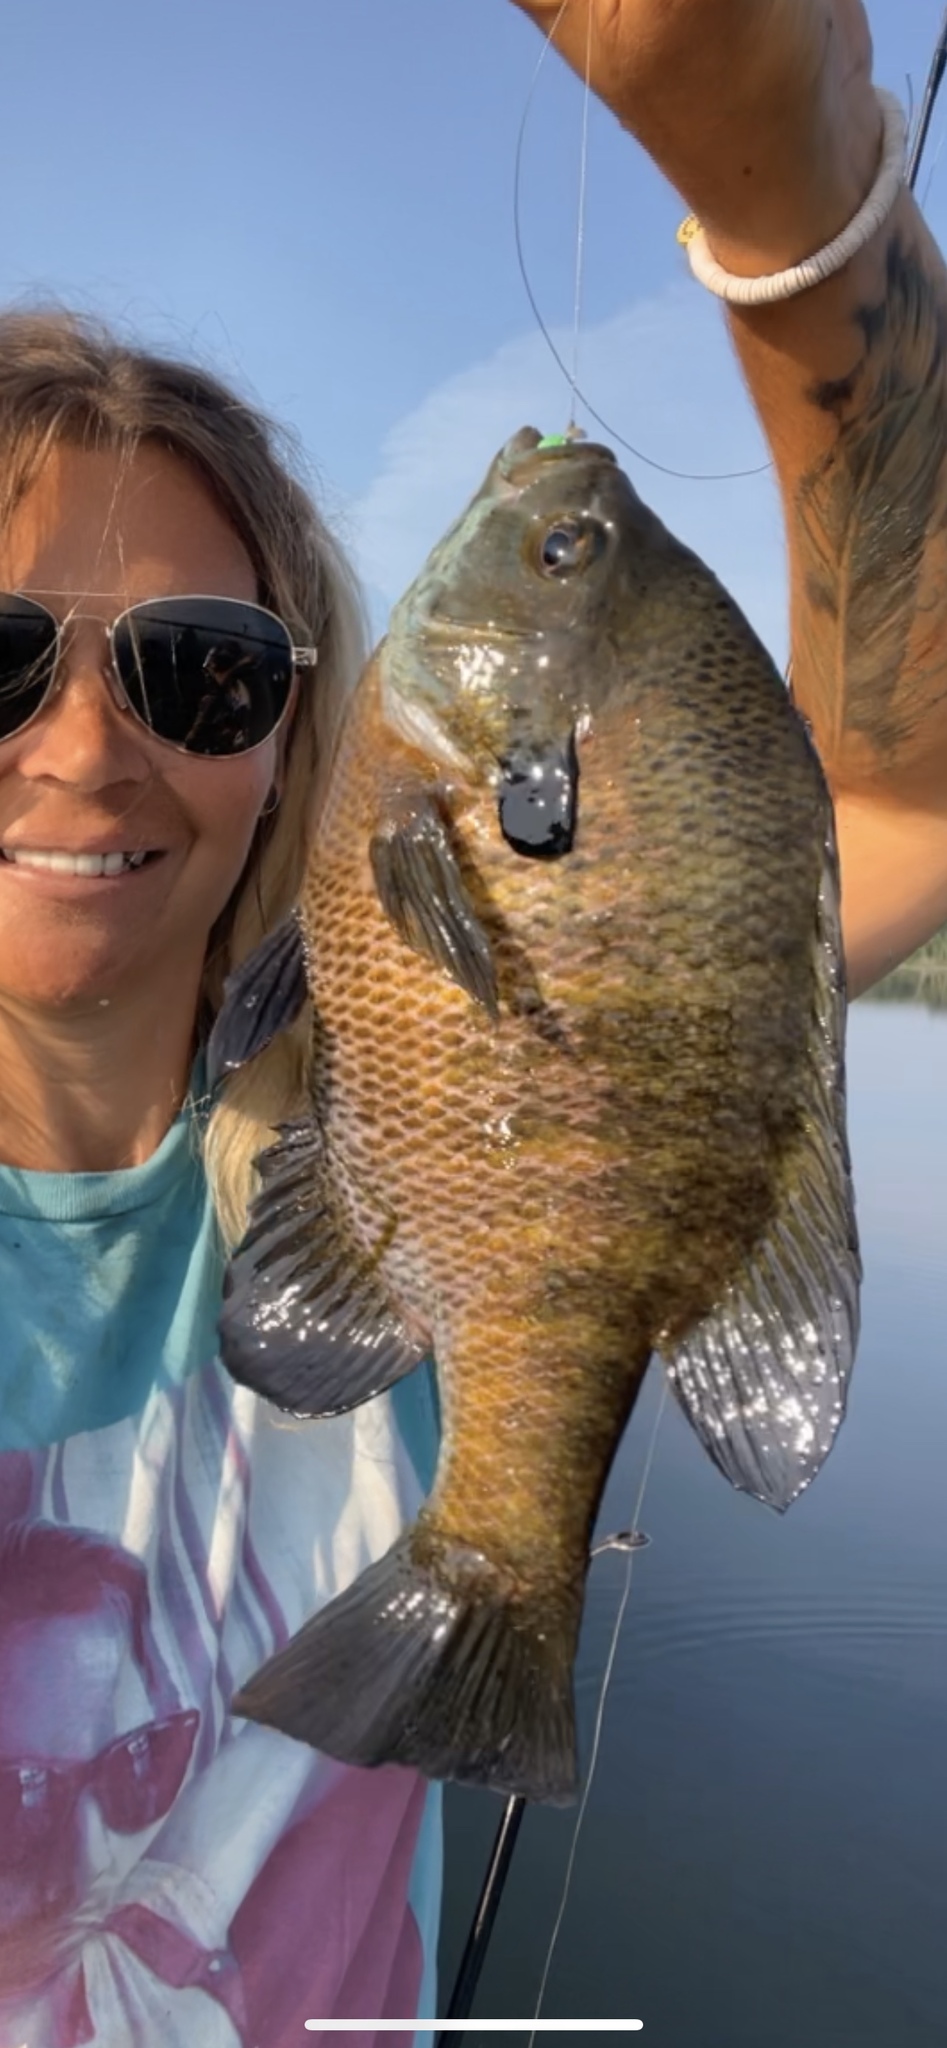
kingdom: Animalia
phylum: Chordata
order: Perciformes
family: Centrarchidae
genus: Lepomis
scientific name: Lepomis macrochirus
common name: Bluegill
